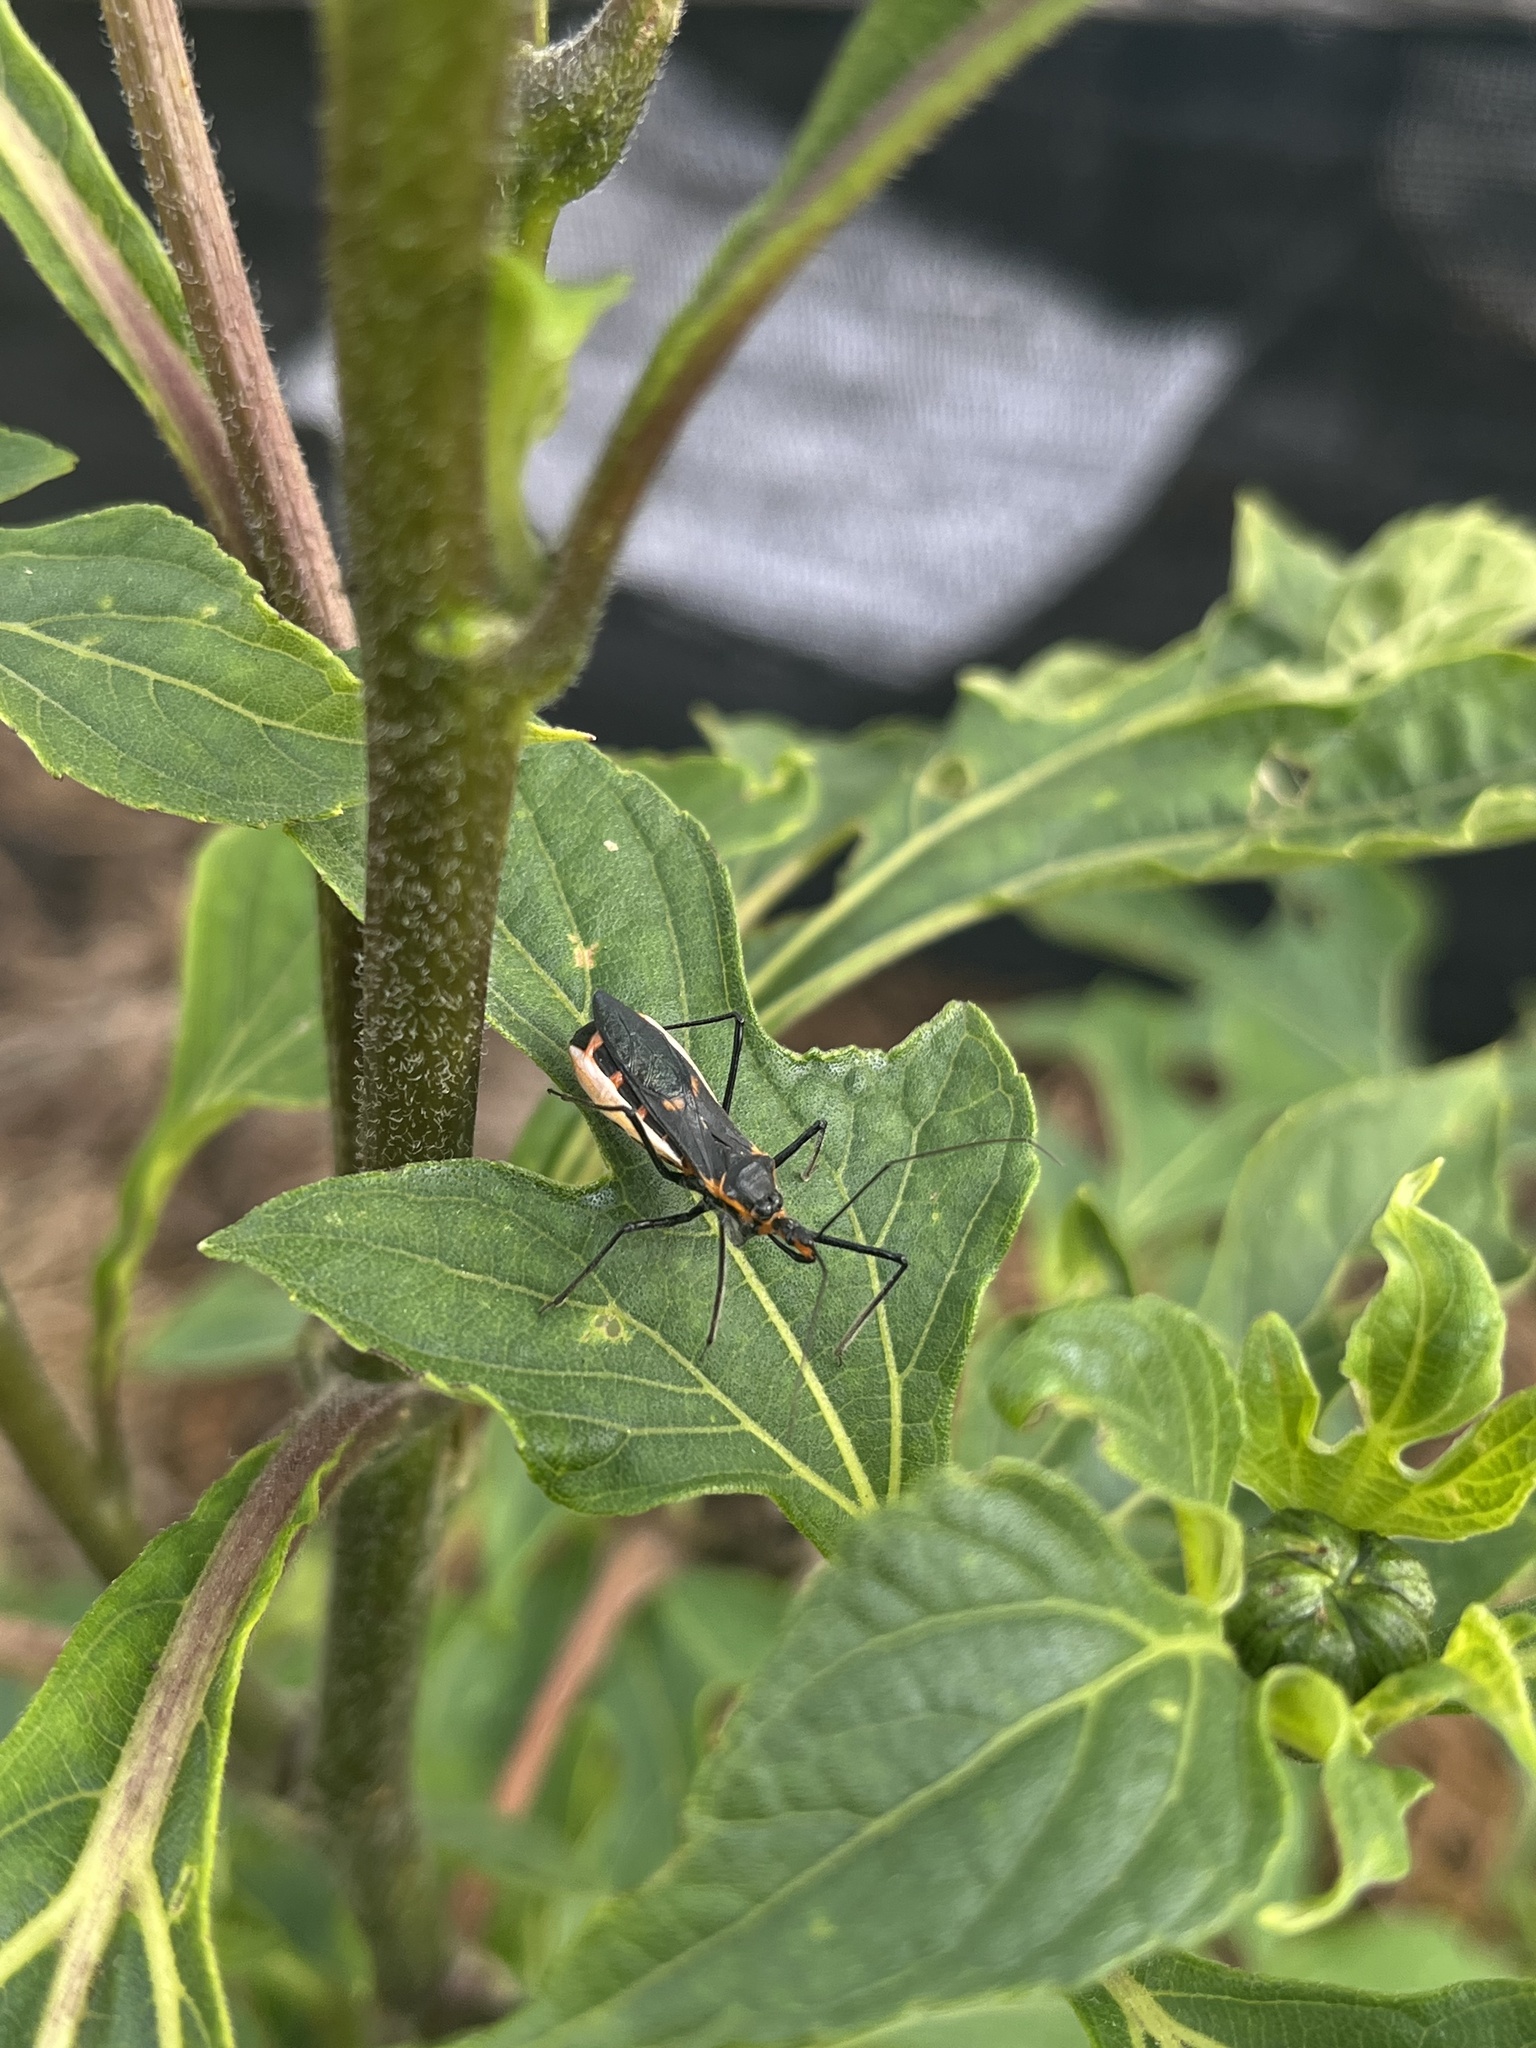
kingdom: Animalia
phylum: Arthropoda
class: Insecta
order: Hemiptera
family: Reduviidae
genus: Zelus
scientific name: Zelus longipes
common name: Milkweed assassin bug
